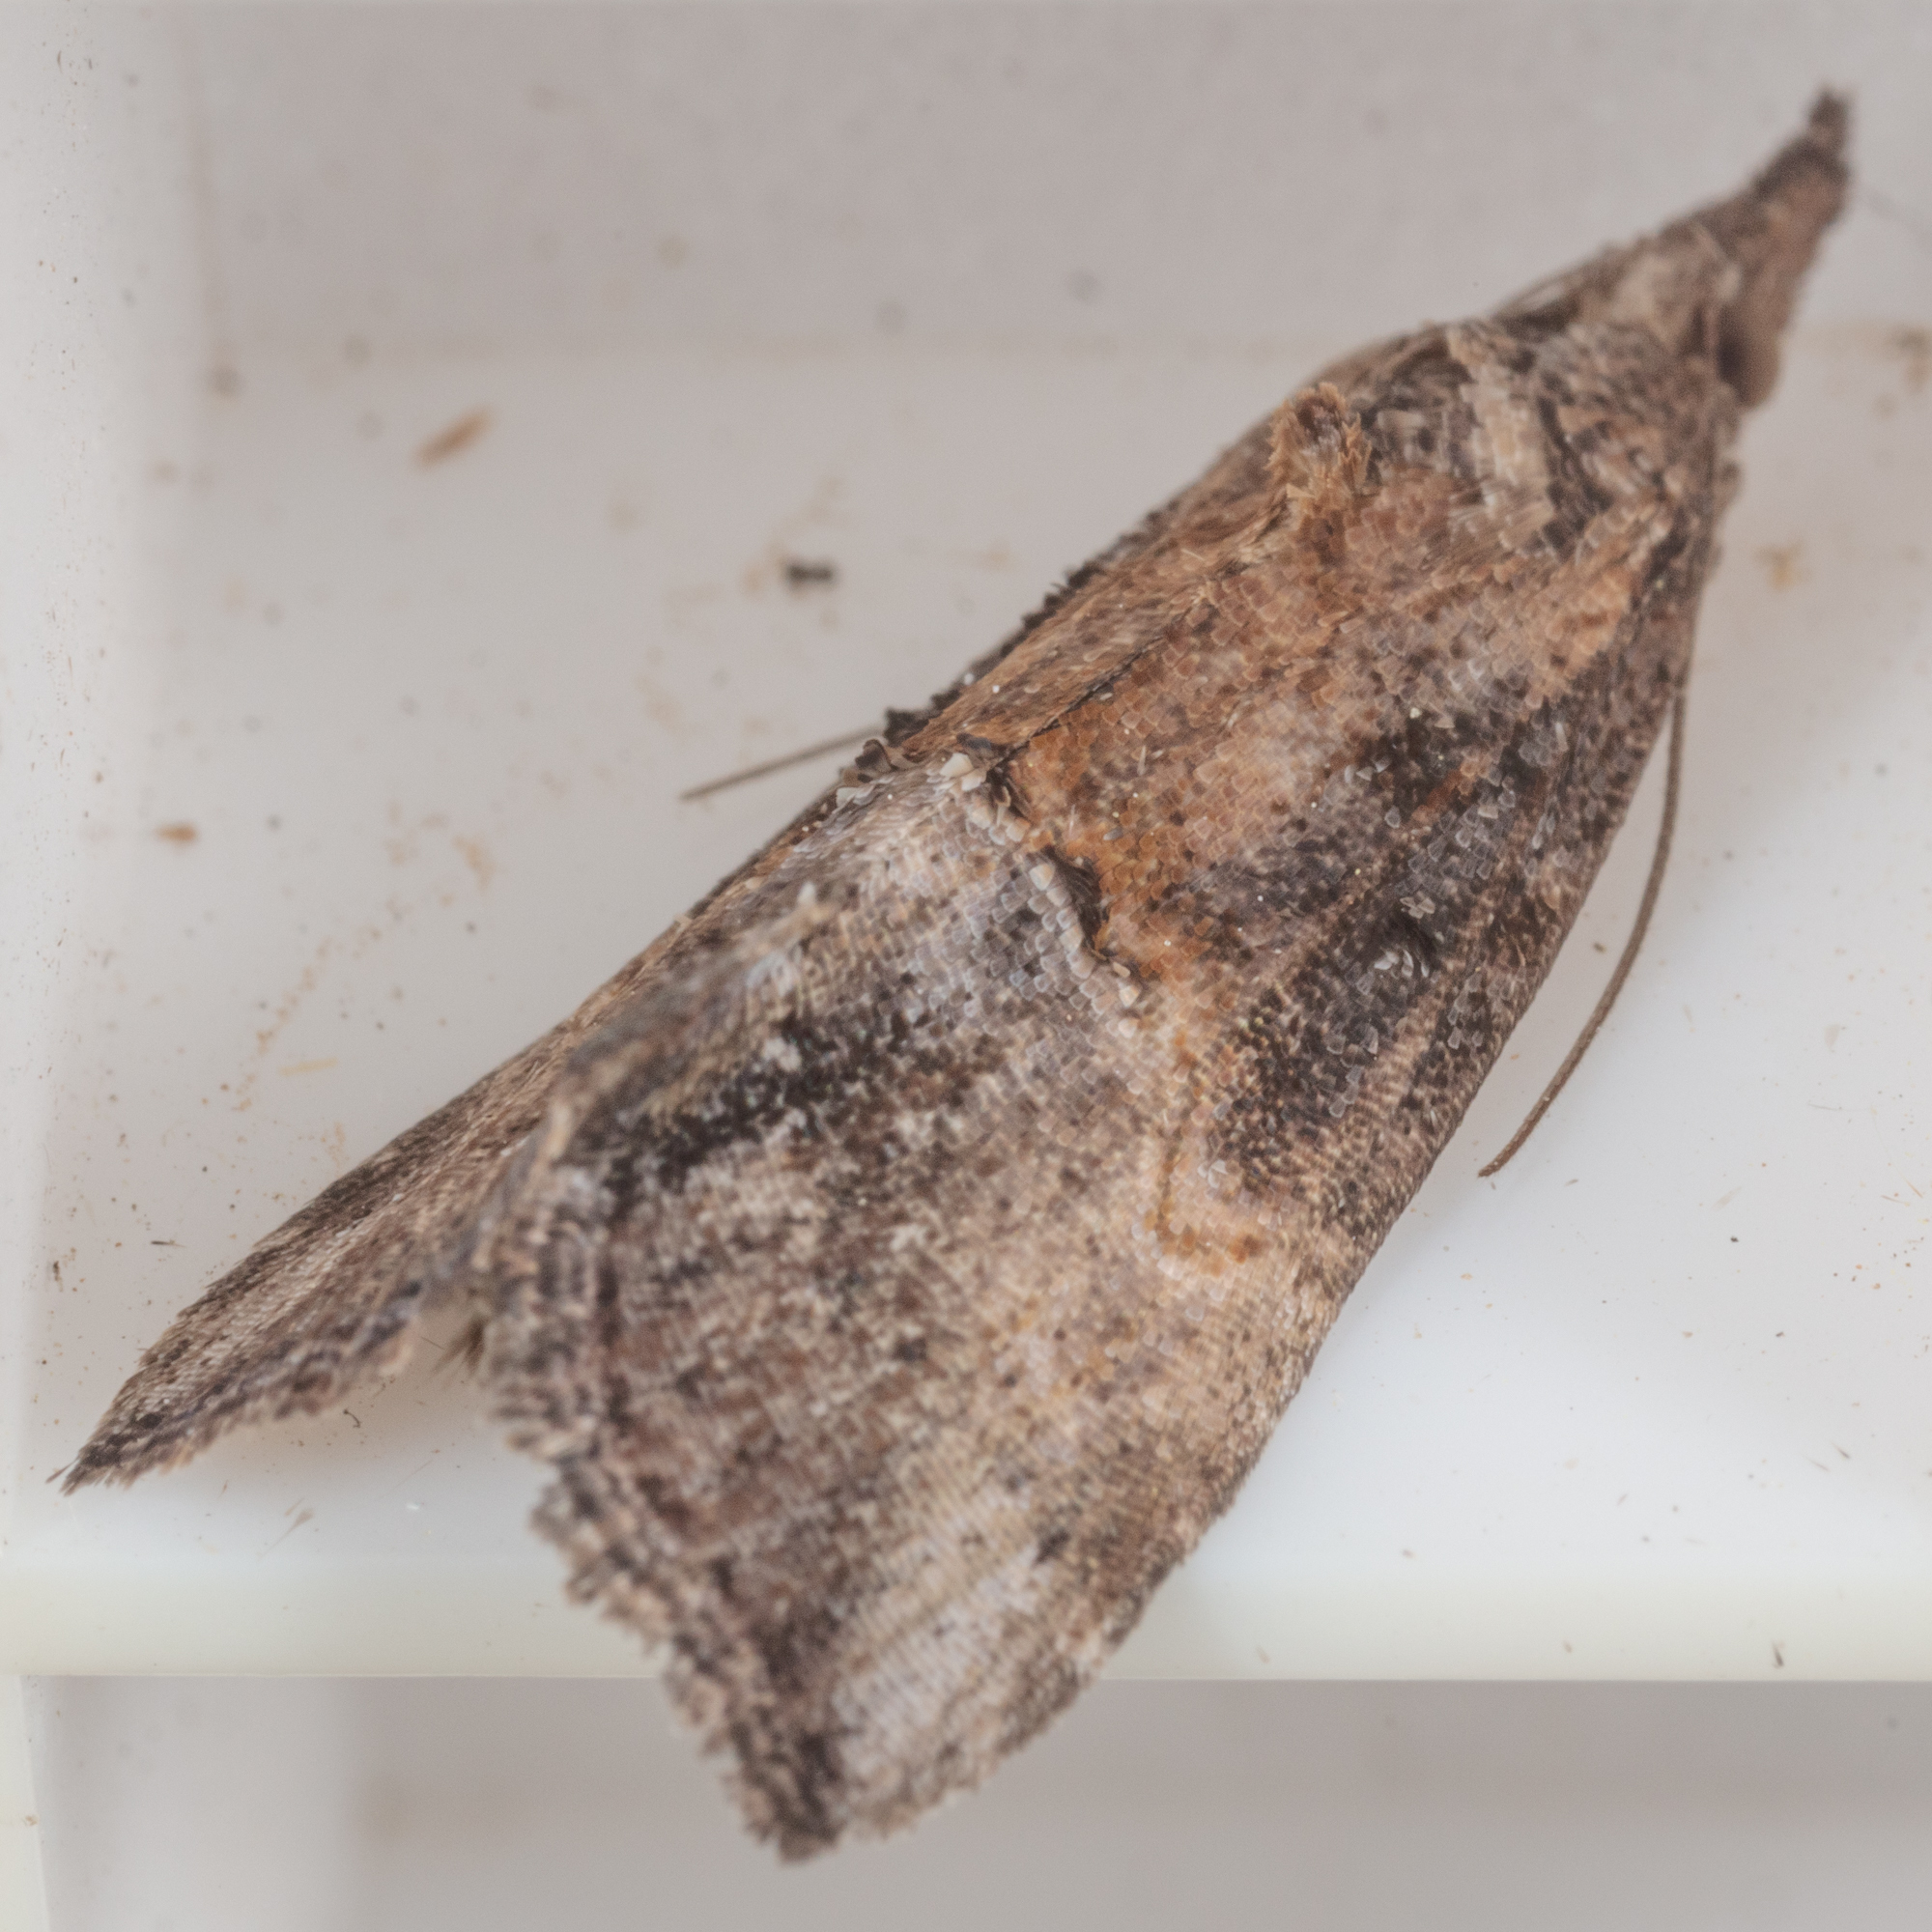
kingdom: Animalia
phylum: Arthropoda
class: Insecta
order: Lepidoptera
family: Erebidae
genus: Hypena
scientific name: Hypena scabra
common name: Green cloverworm
